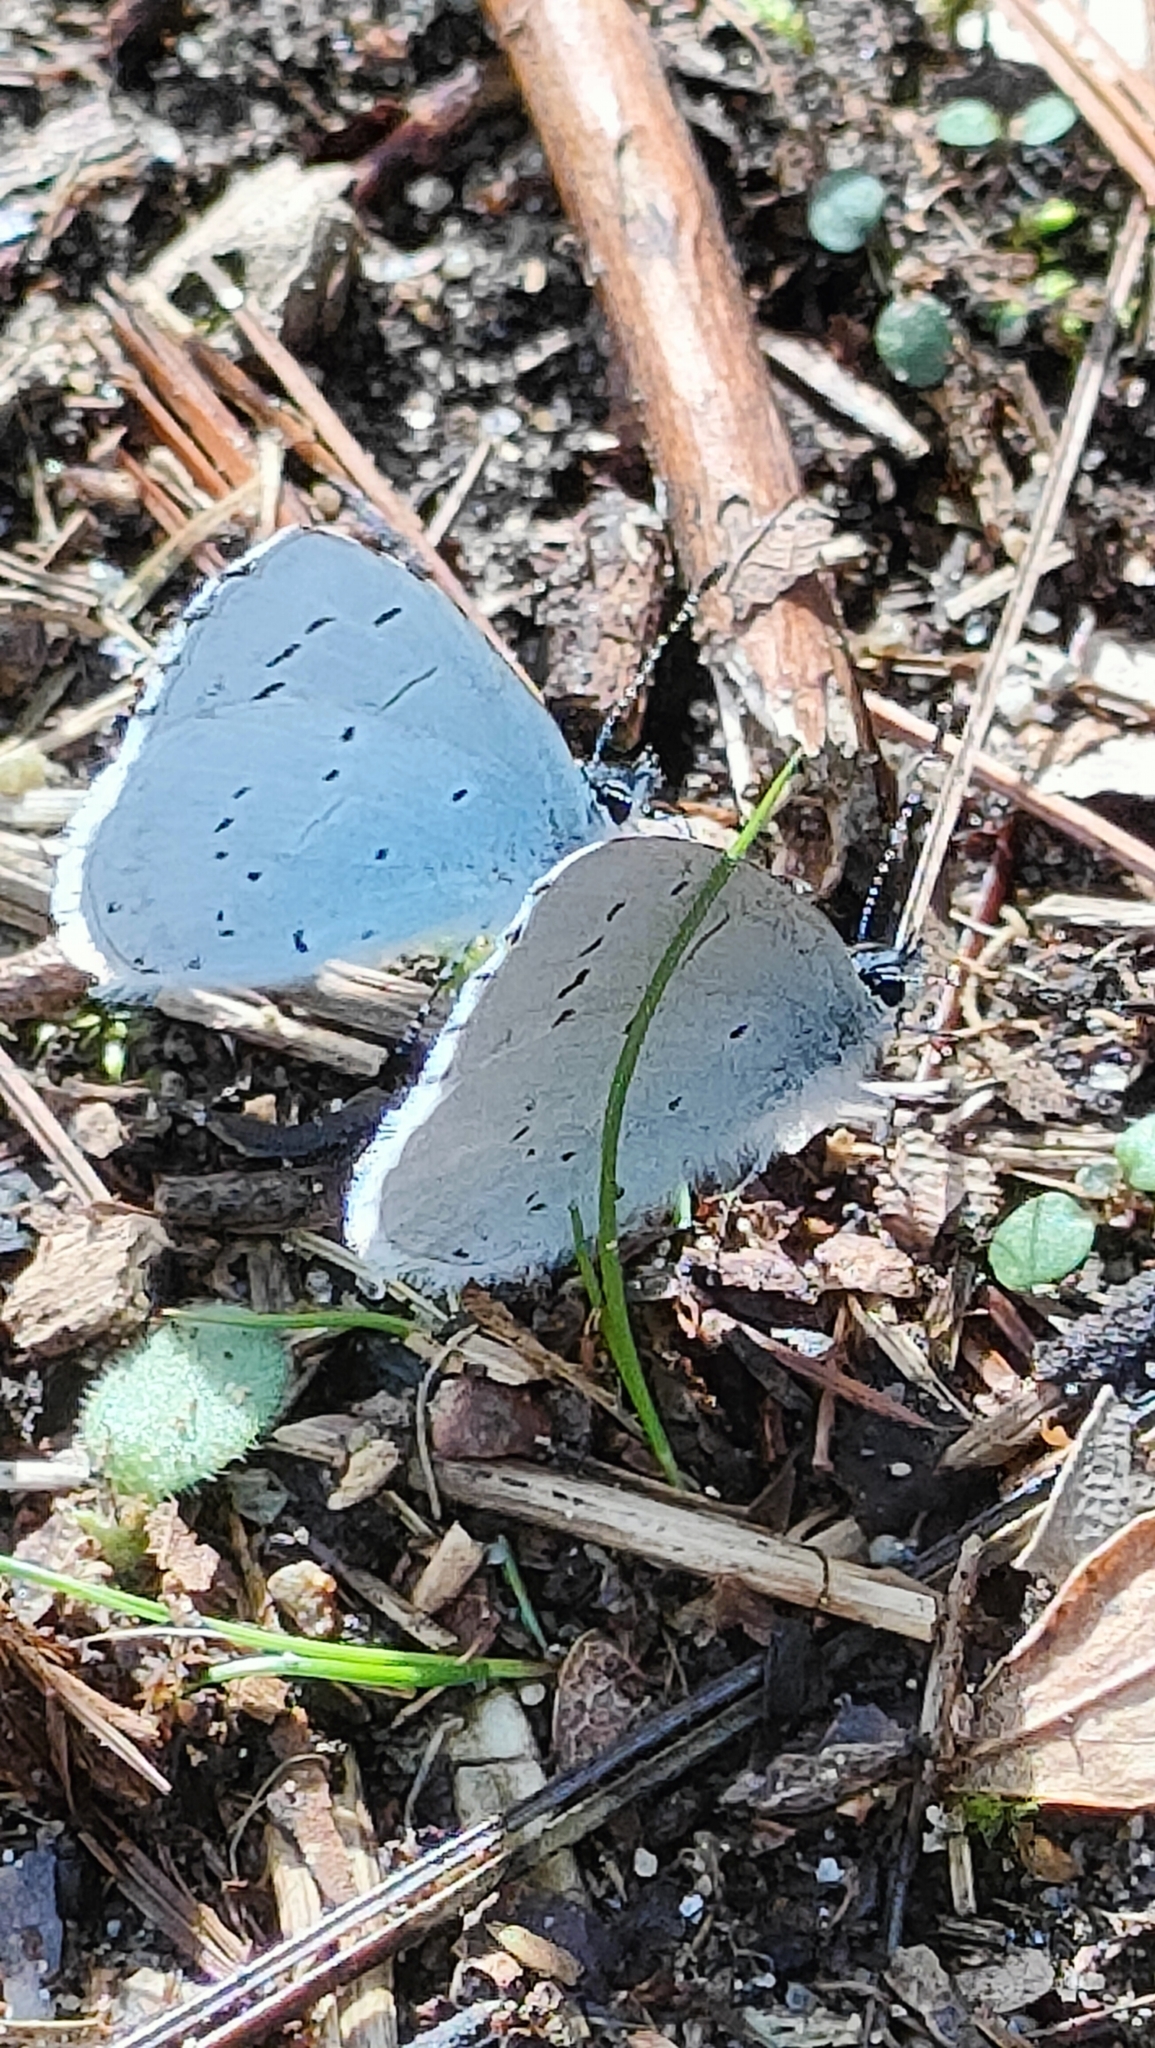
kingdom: Animalia
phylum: Arthropoda
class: Insecta
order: Lepidoptera
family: Lycaenidae
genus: Celastrina
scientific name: Celastrina argiolus
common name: Holly blue
